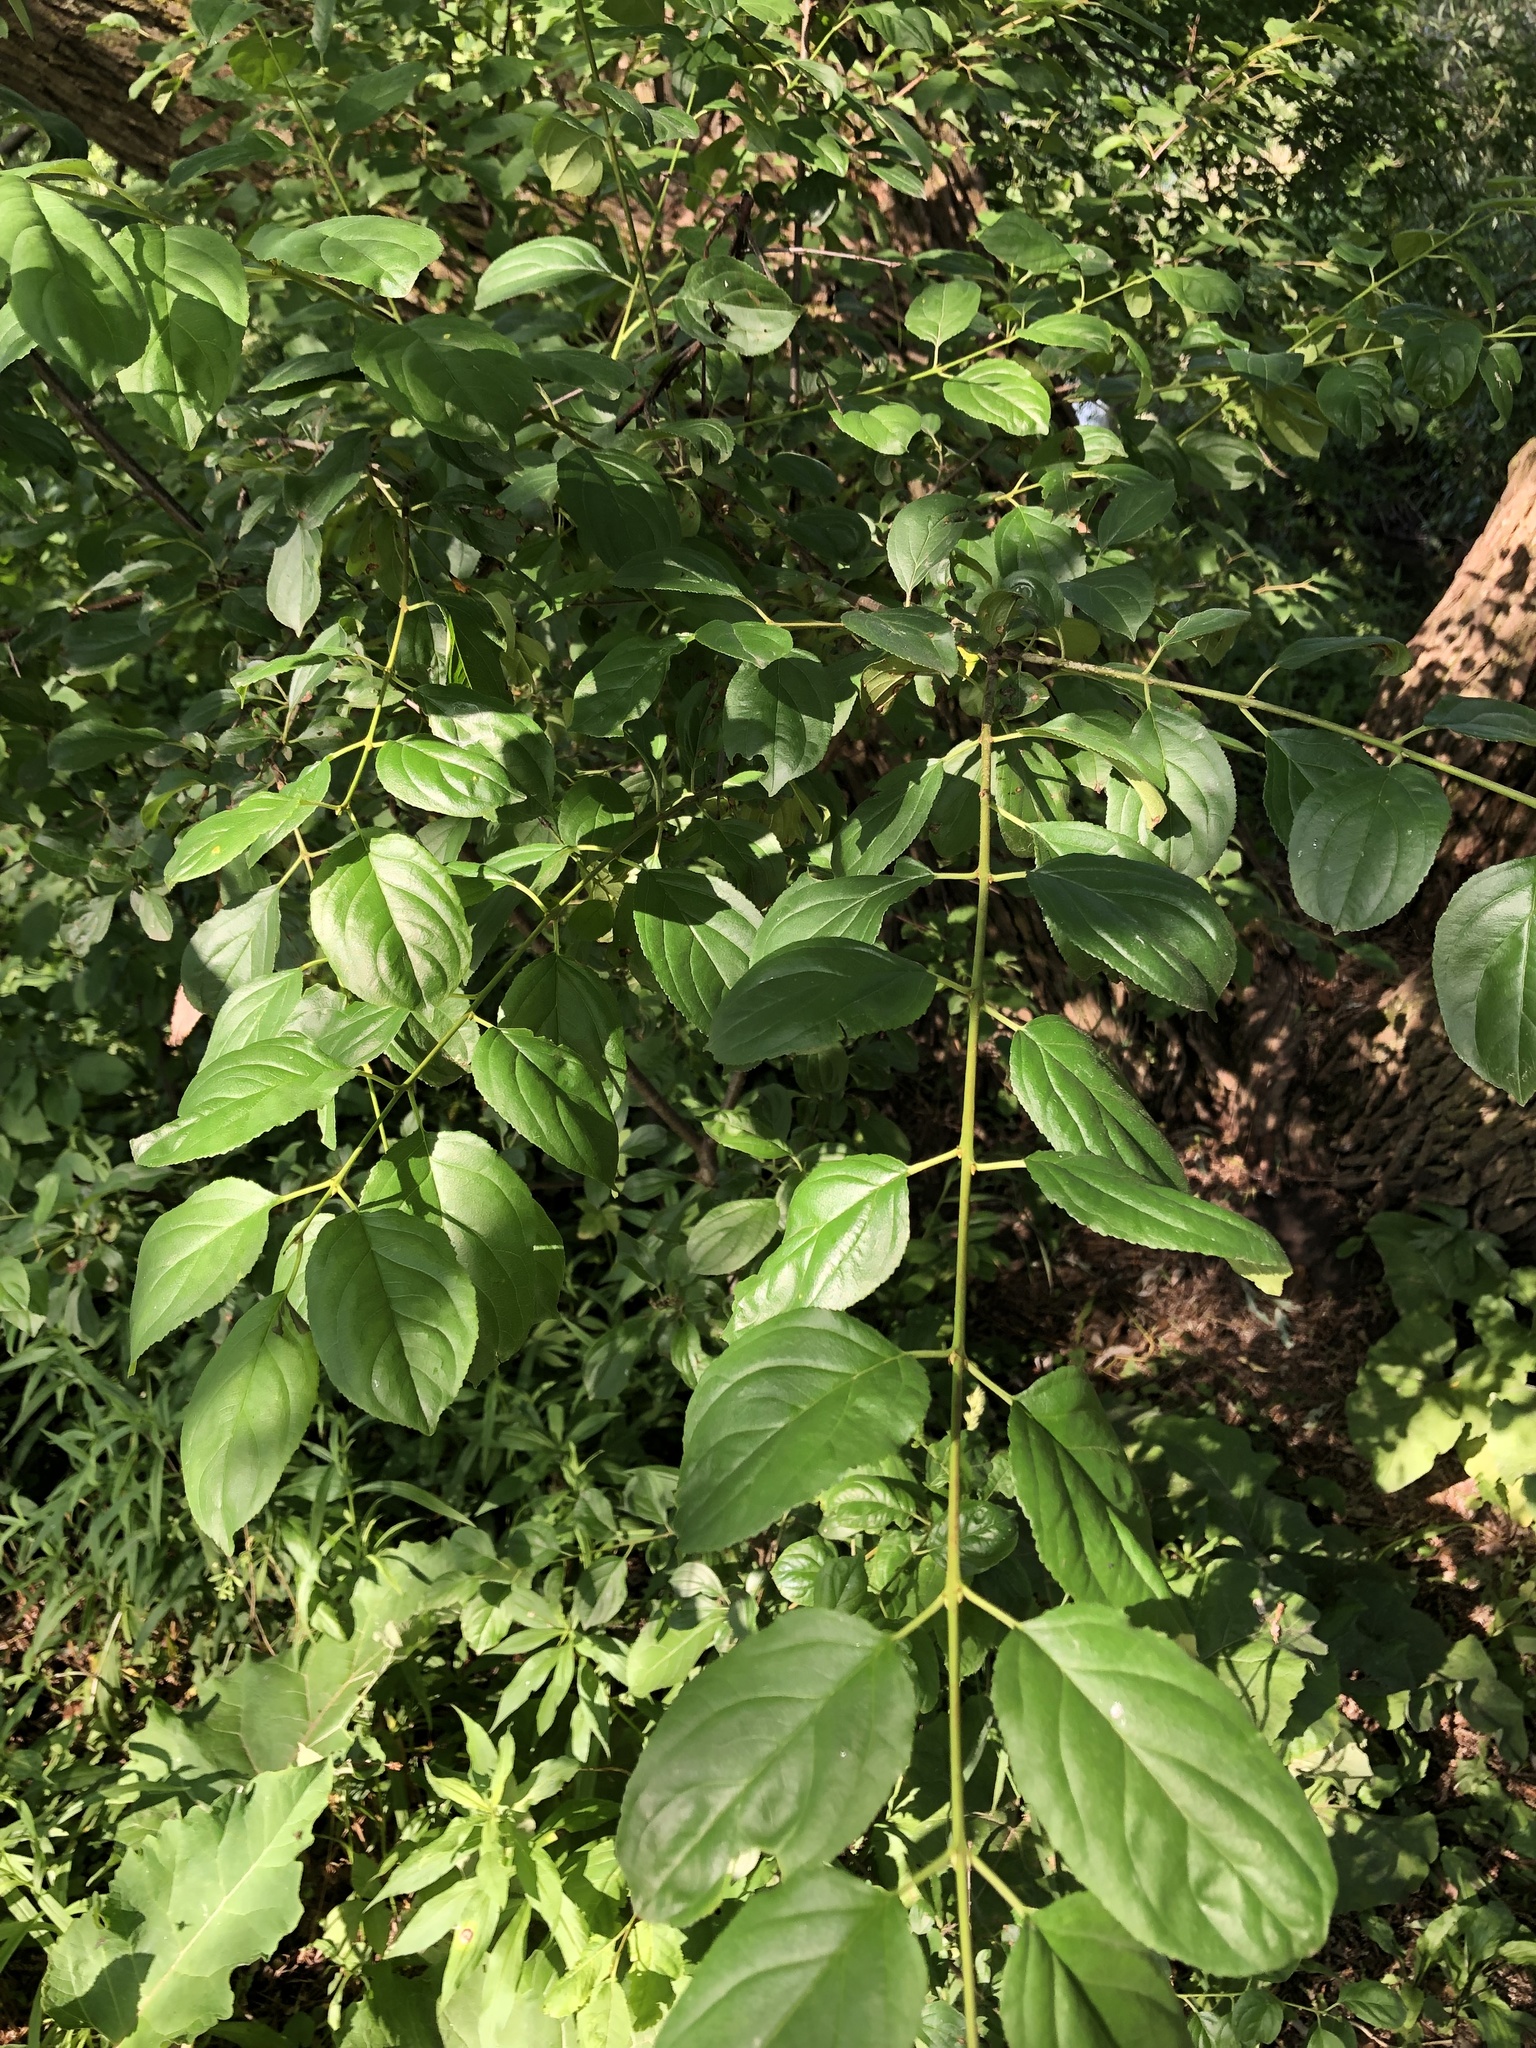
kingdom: Plantae
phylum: Tracheophyta
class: Magnoliopsida
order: Rosales
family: Rhamnaceae
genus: Rhamnus
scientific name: Rhamnus cathartica
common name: Common buckthorn
